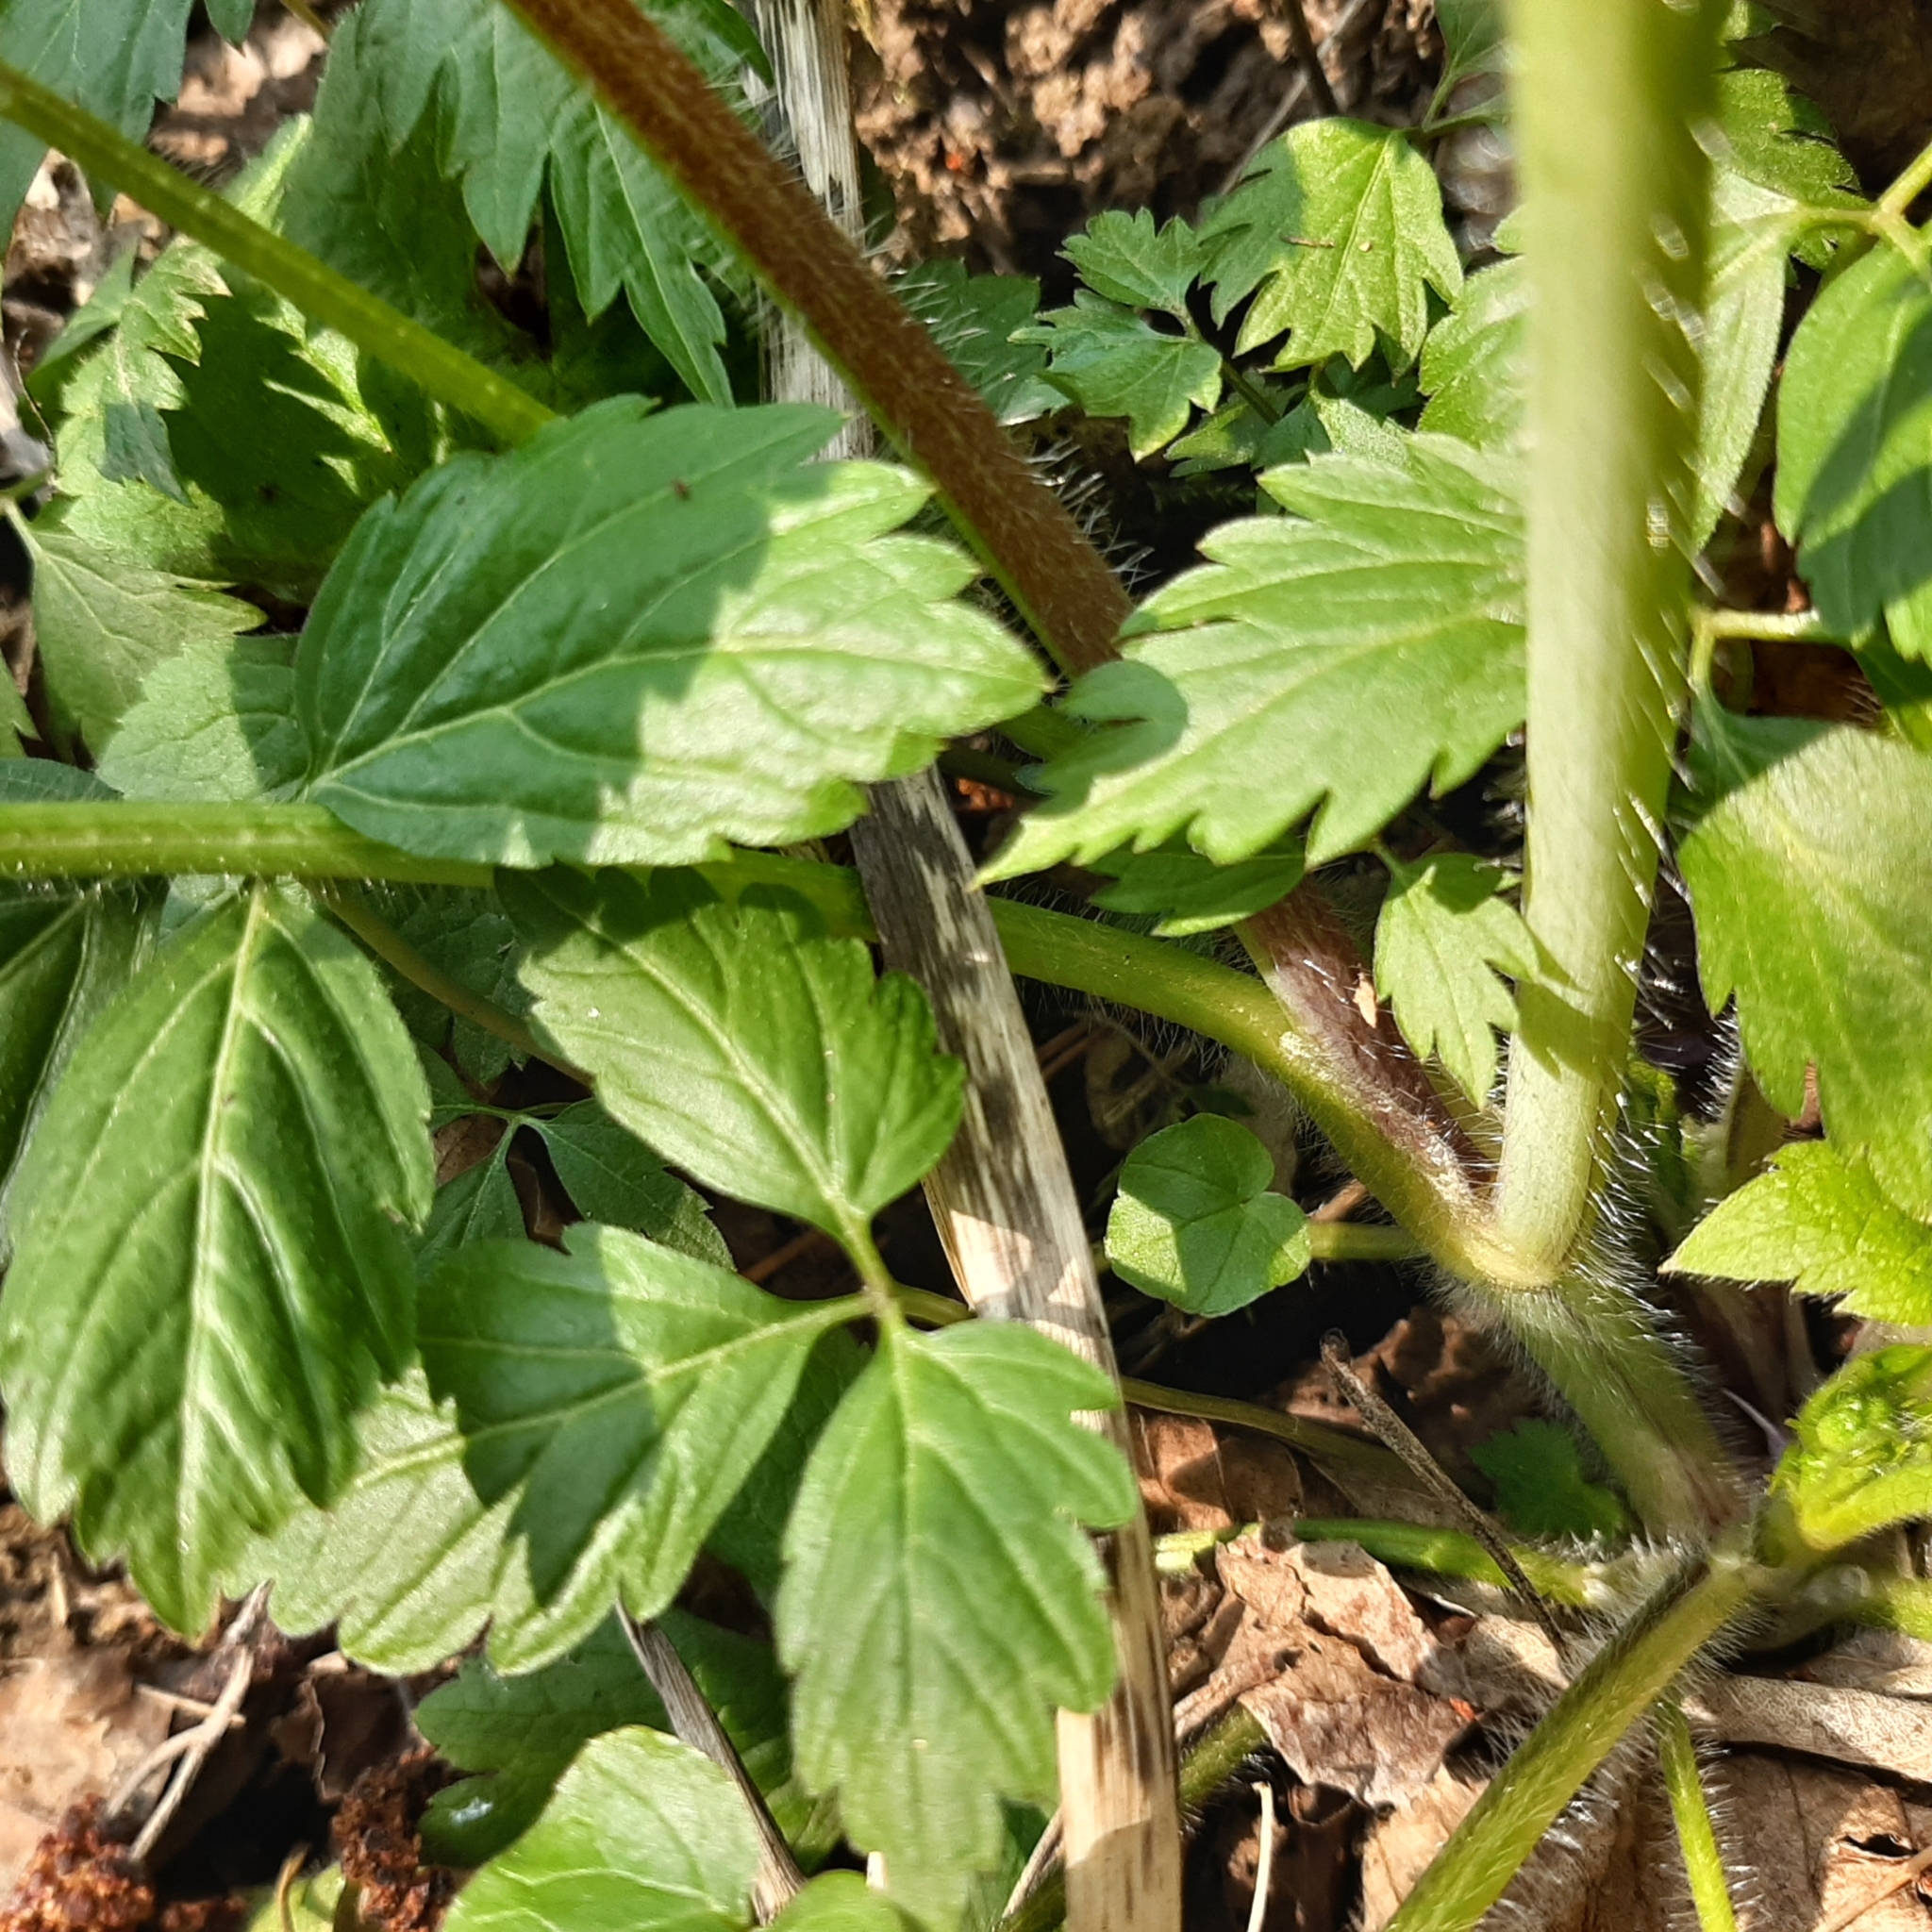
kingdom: Plantae
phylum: Tracheophyta
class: Magnoliopsida
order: Ranunculales
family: Ranunculaceae
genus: Ranunculus
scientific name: Ranunculus lanuginosus
